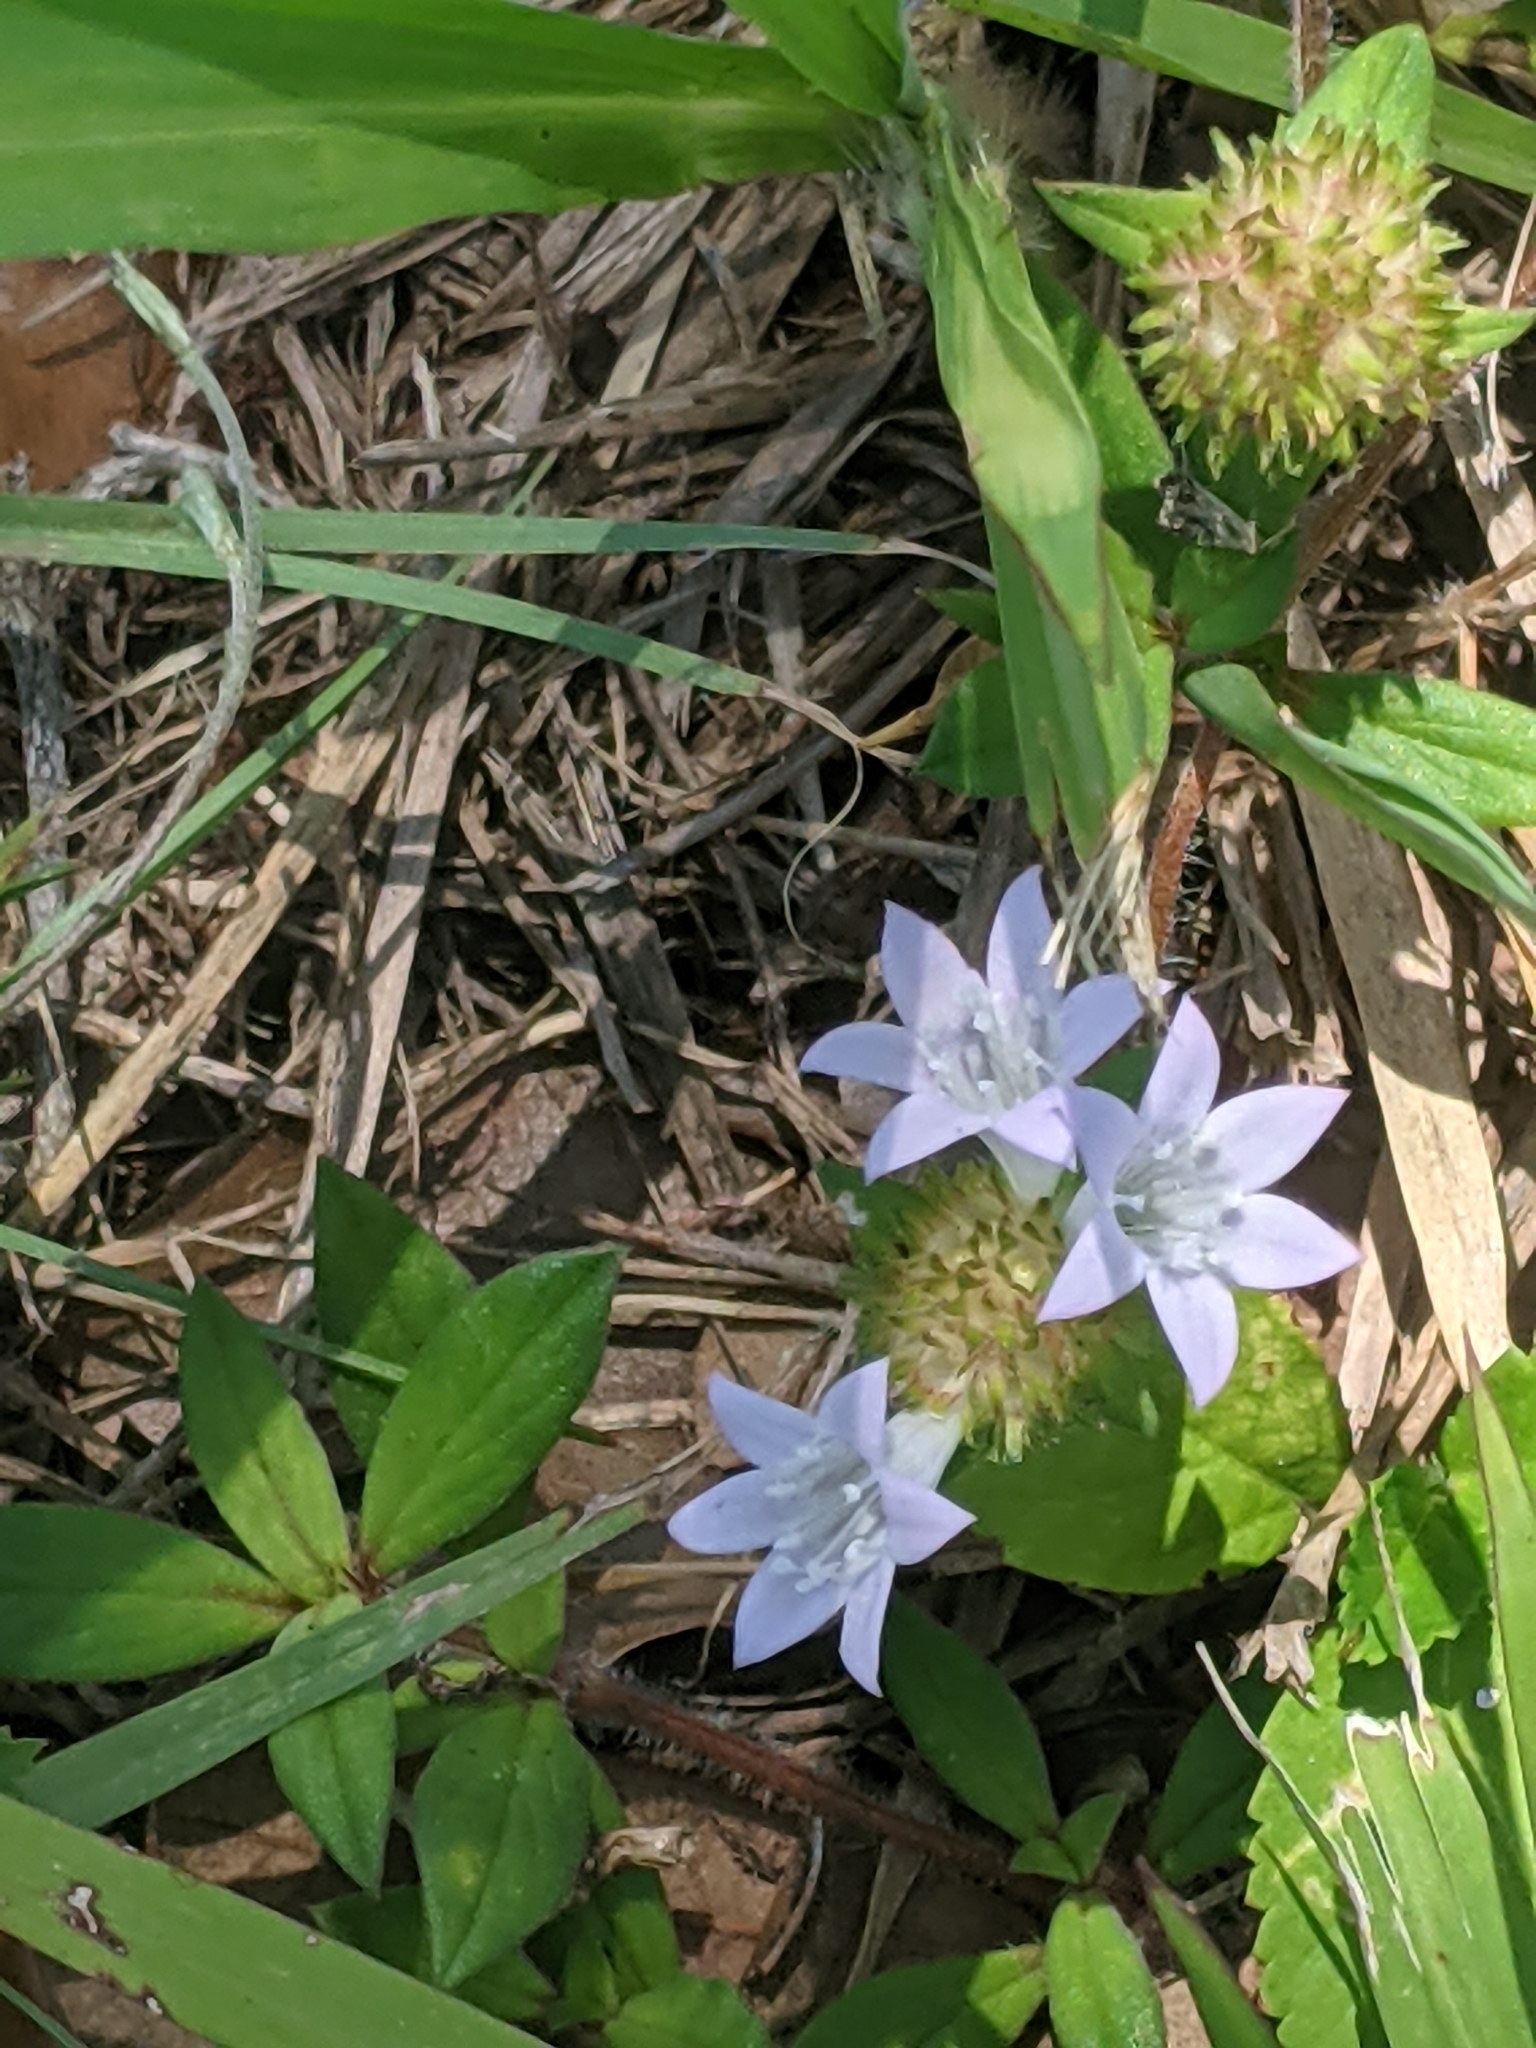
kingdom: Plantae
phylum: Tracheophyta
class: Magnoliopsida
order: Gentianales
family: Rubiaceae
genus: Richardia
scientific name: Richardia grandiflora
